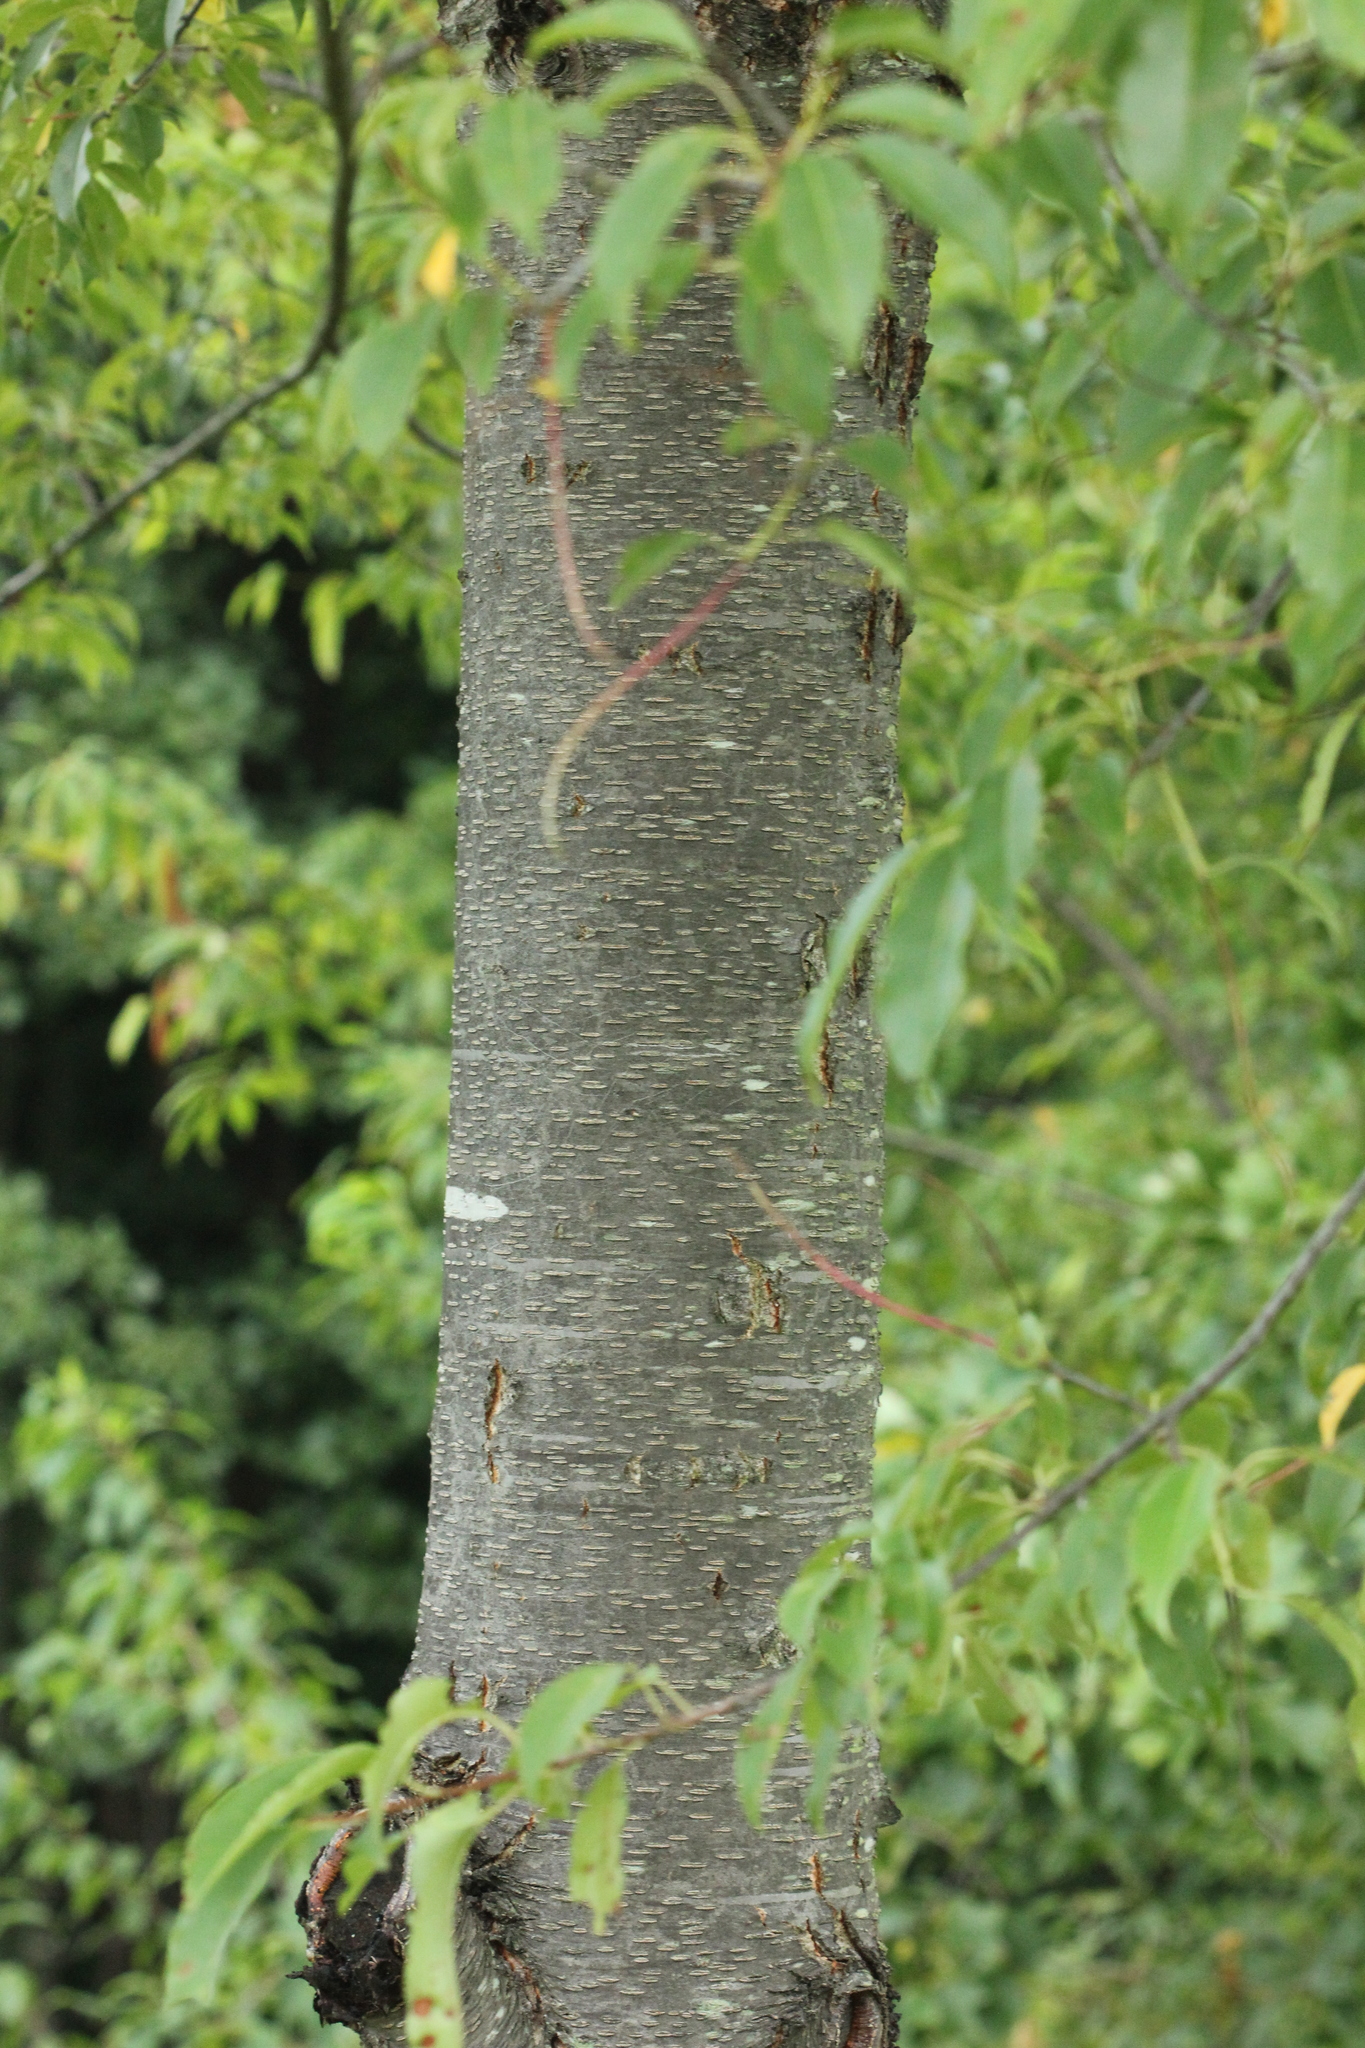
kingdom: Plantae
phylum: Tracheophyta
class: Magnoliopsida
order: Rosales
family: Rosaceae
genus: Prunus
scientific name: Prunus serotina
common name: Black cherry
